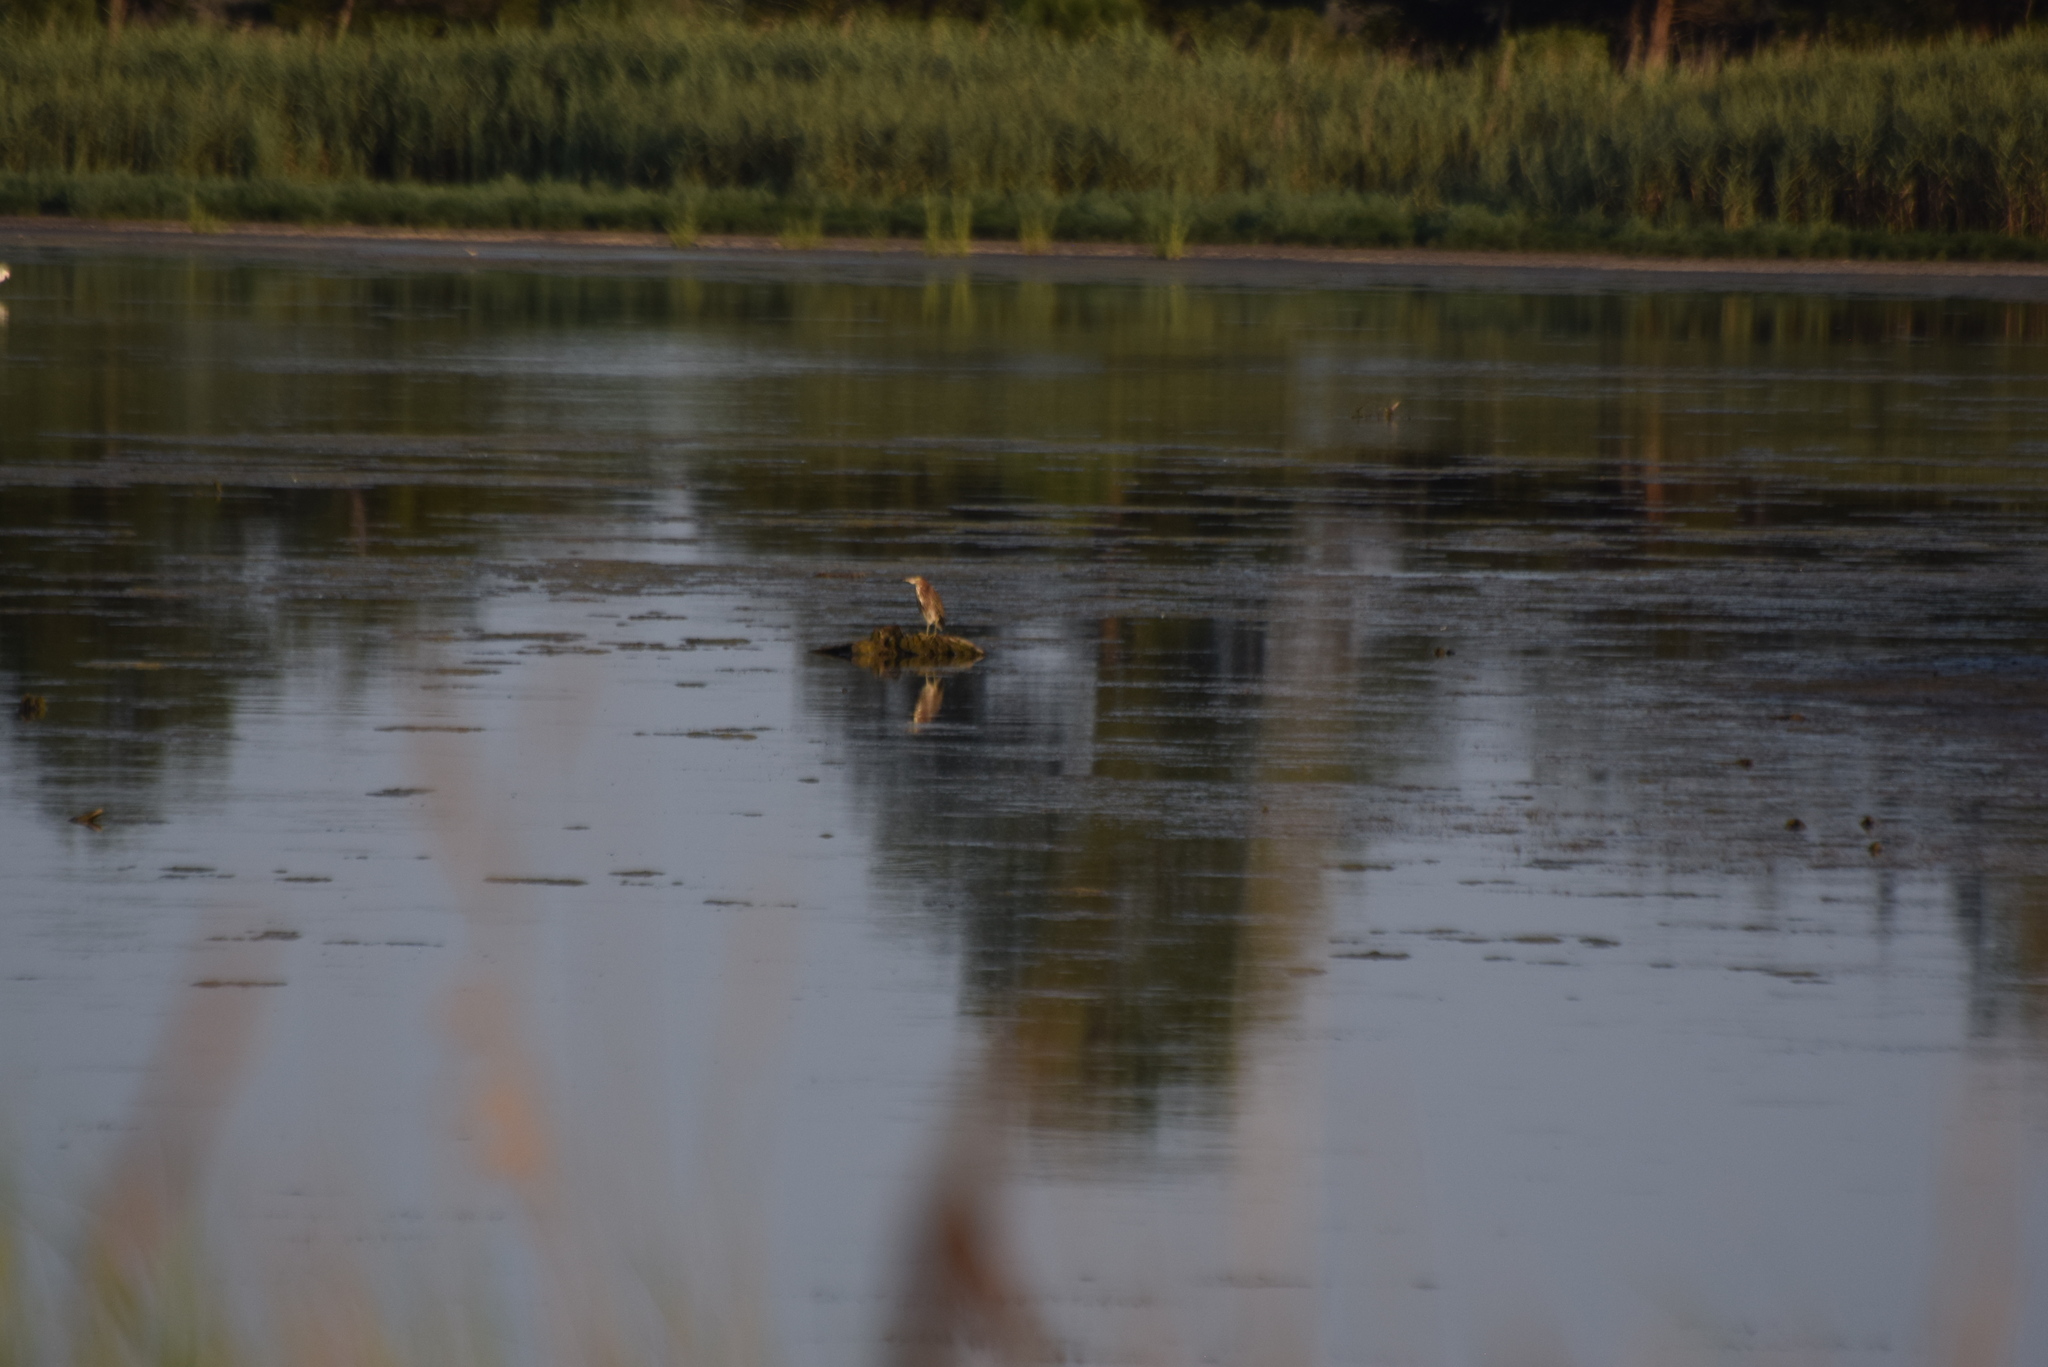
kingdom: Animalia
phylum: Chordata
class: Aves
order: Pelecaniformes
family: Ardeidae
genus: Butorides
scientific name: Butorides virescens
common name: Green heron
